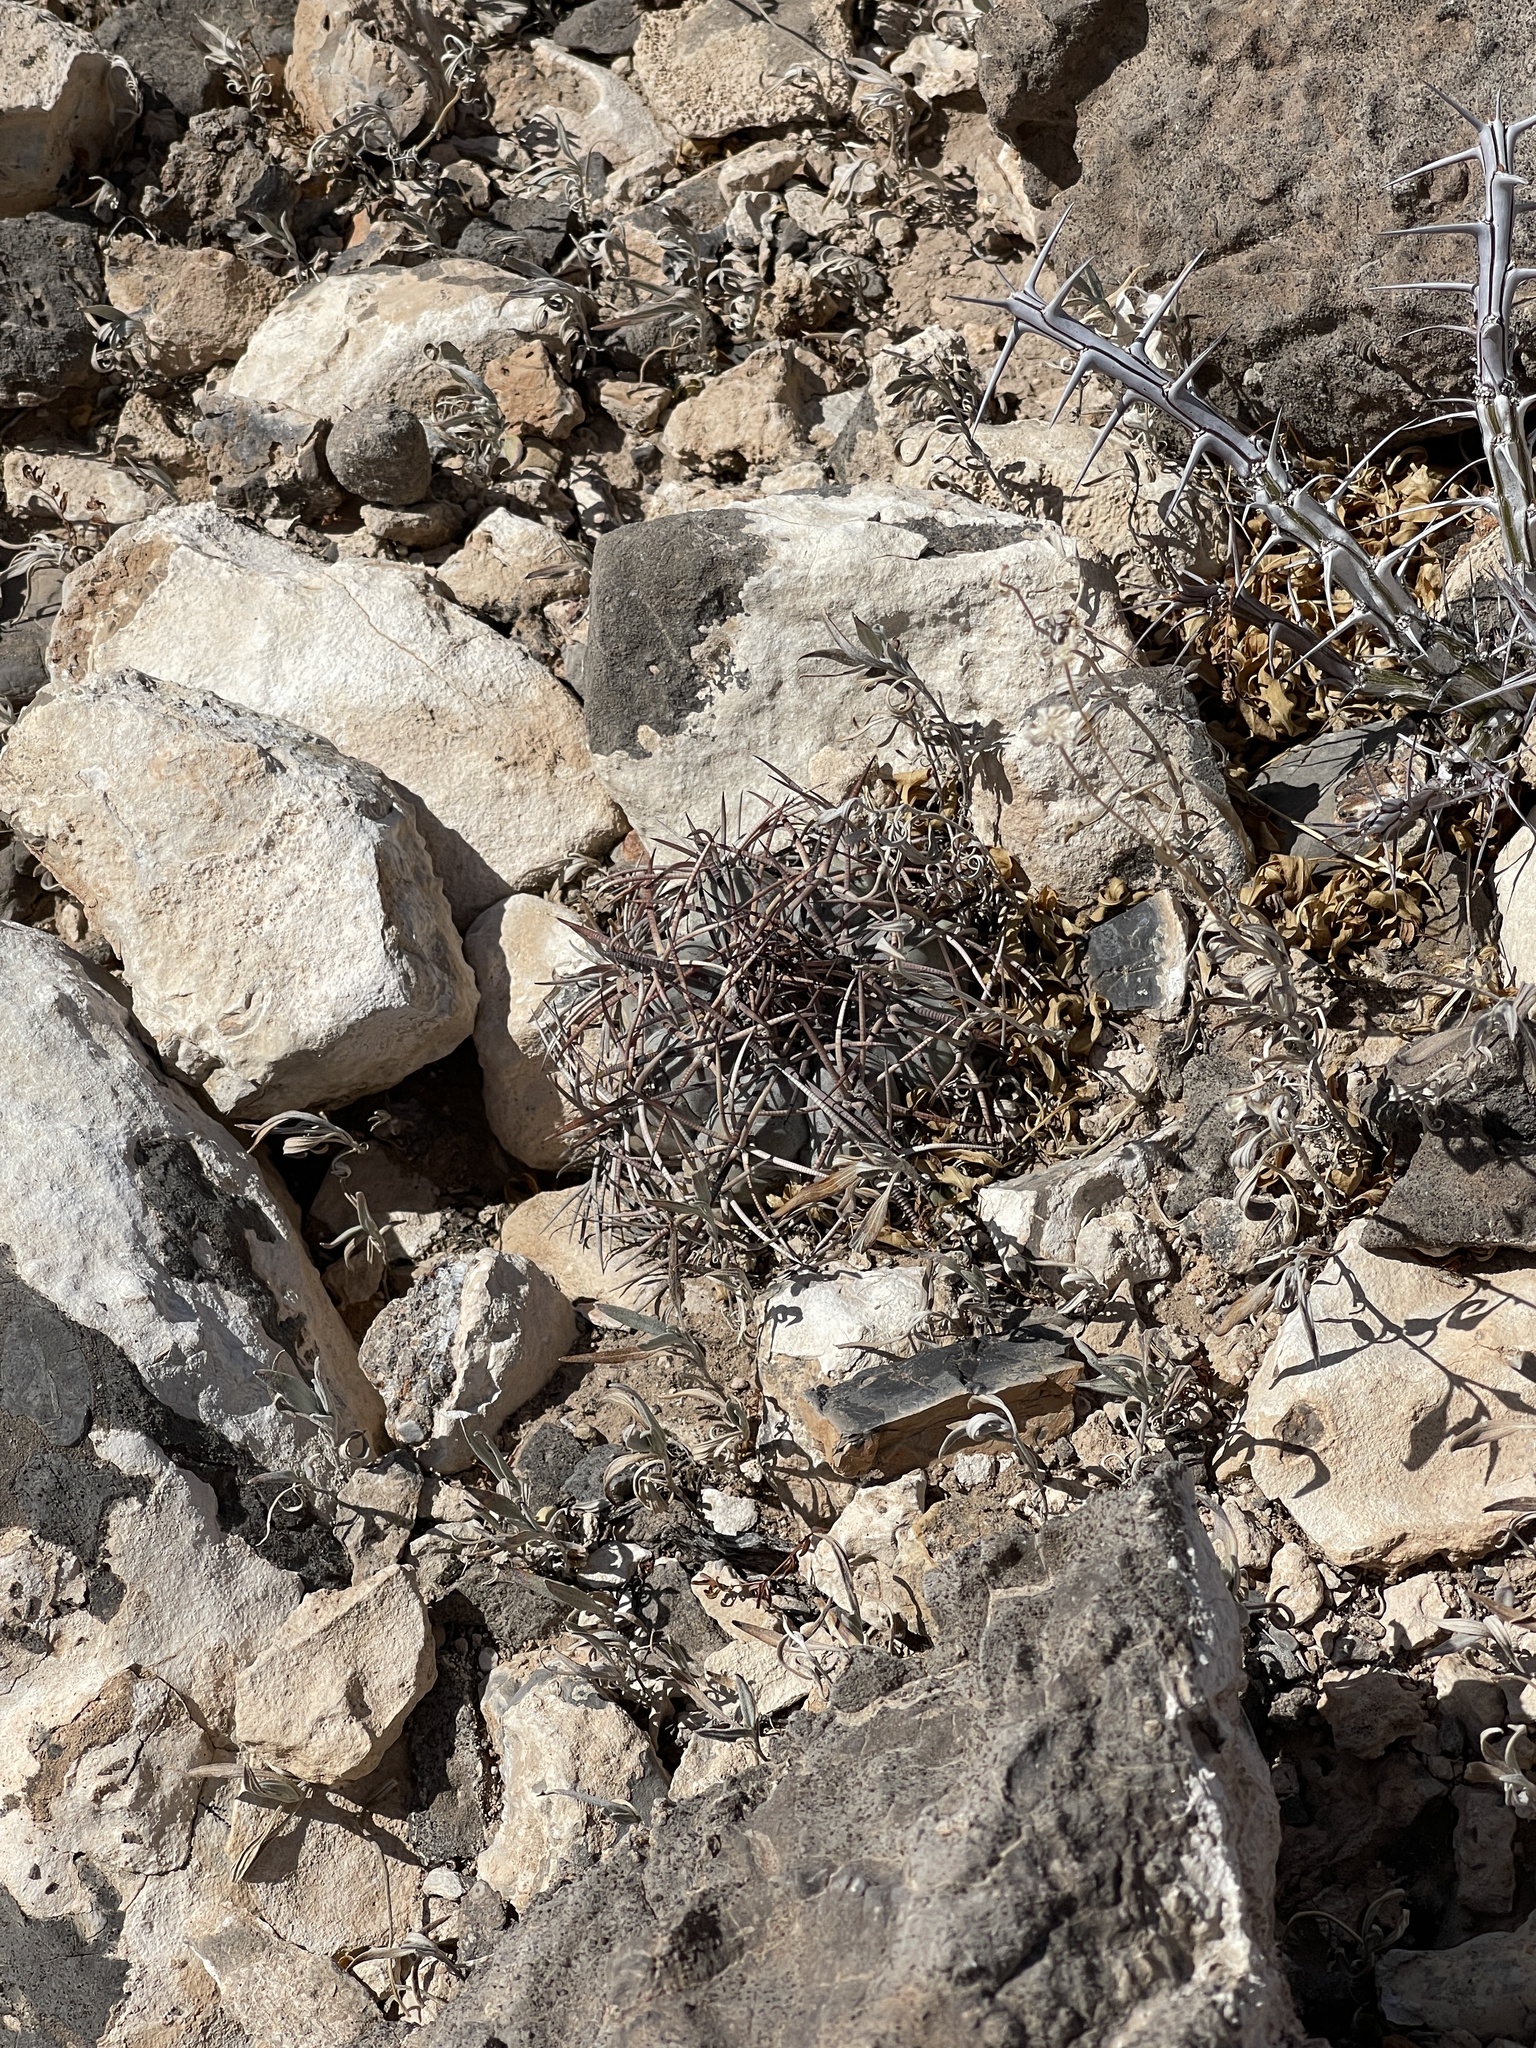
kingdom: Plantae
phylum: Tracheophyta
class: Magnoliopsida
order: Caryophyllales
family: Cactaceae
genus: Echinocactus
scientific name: Echinocactus horizonthalonius
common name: Devilshead
